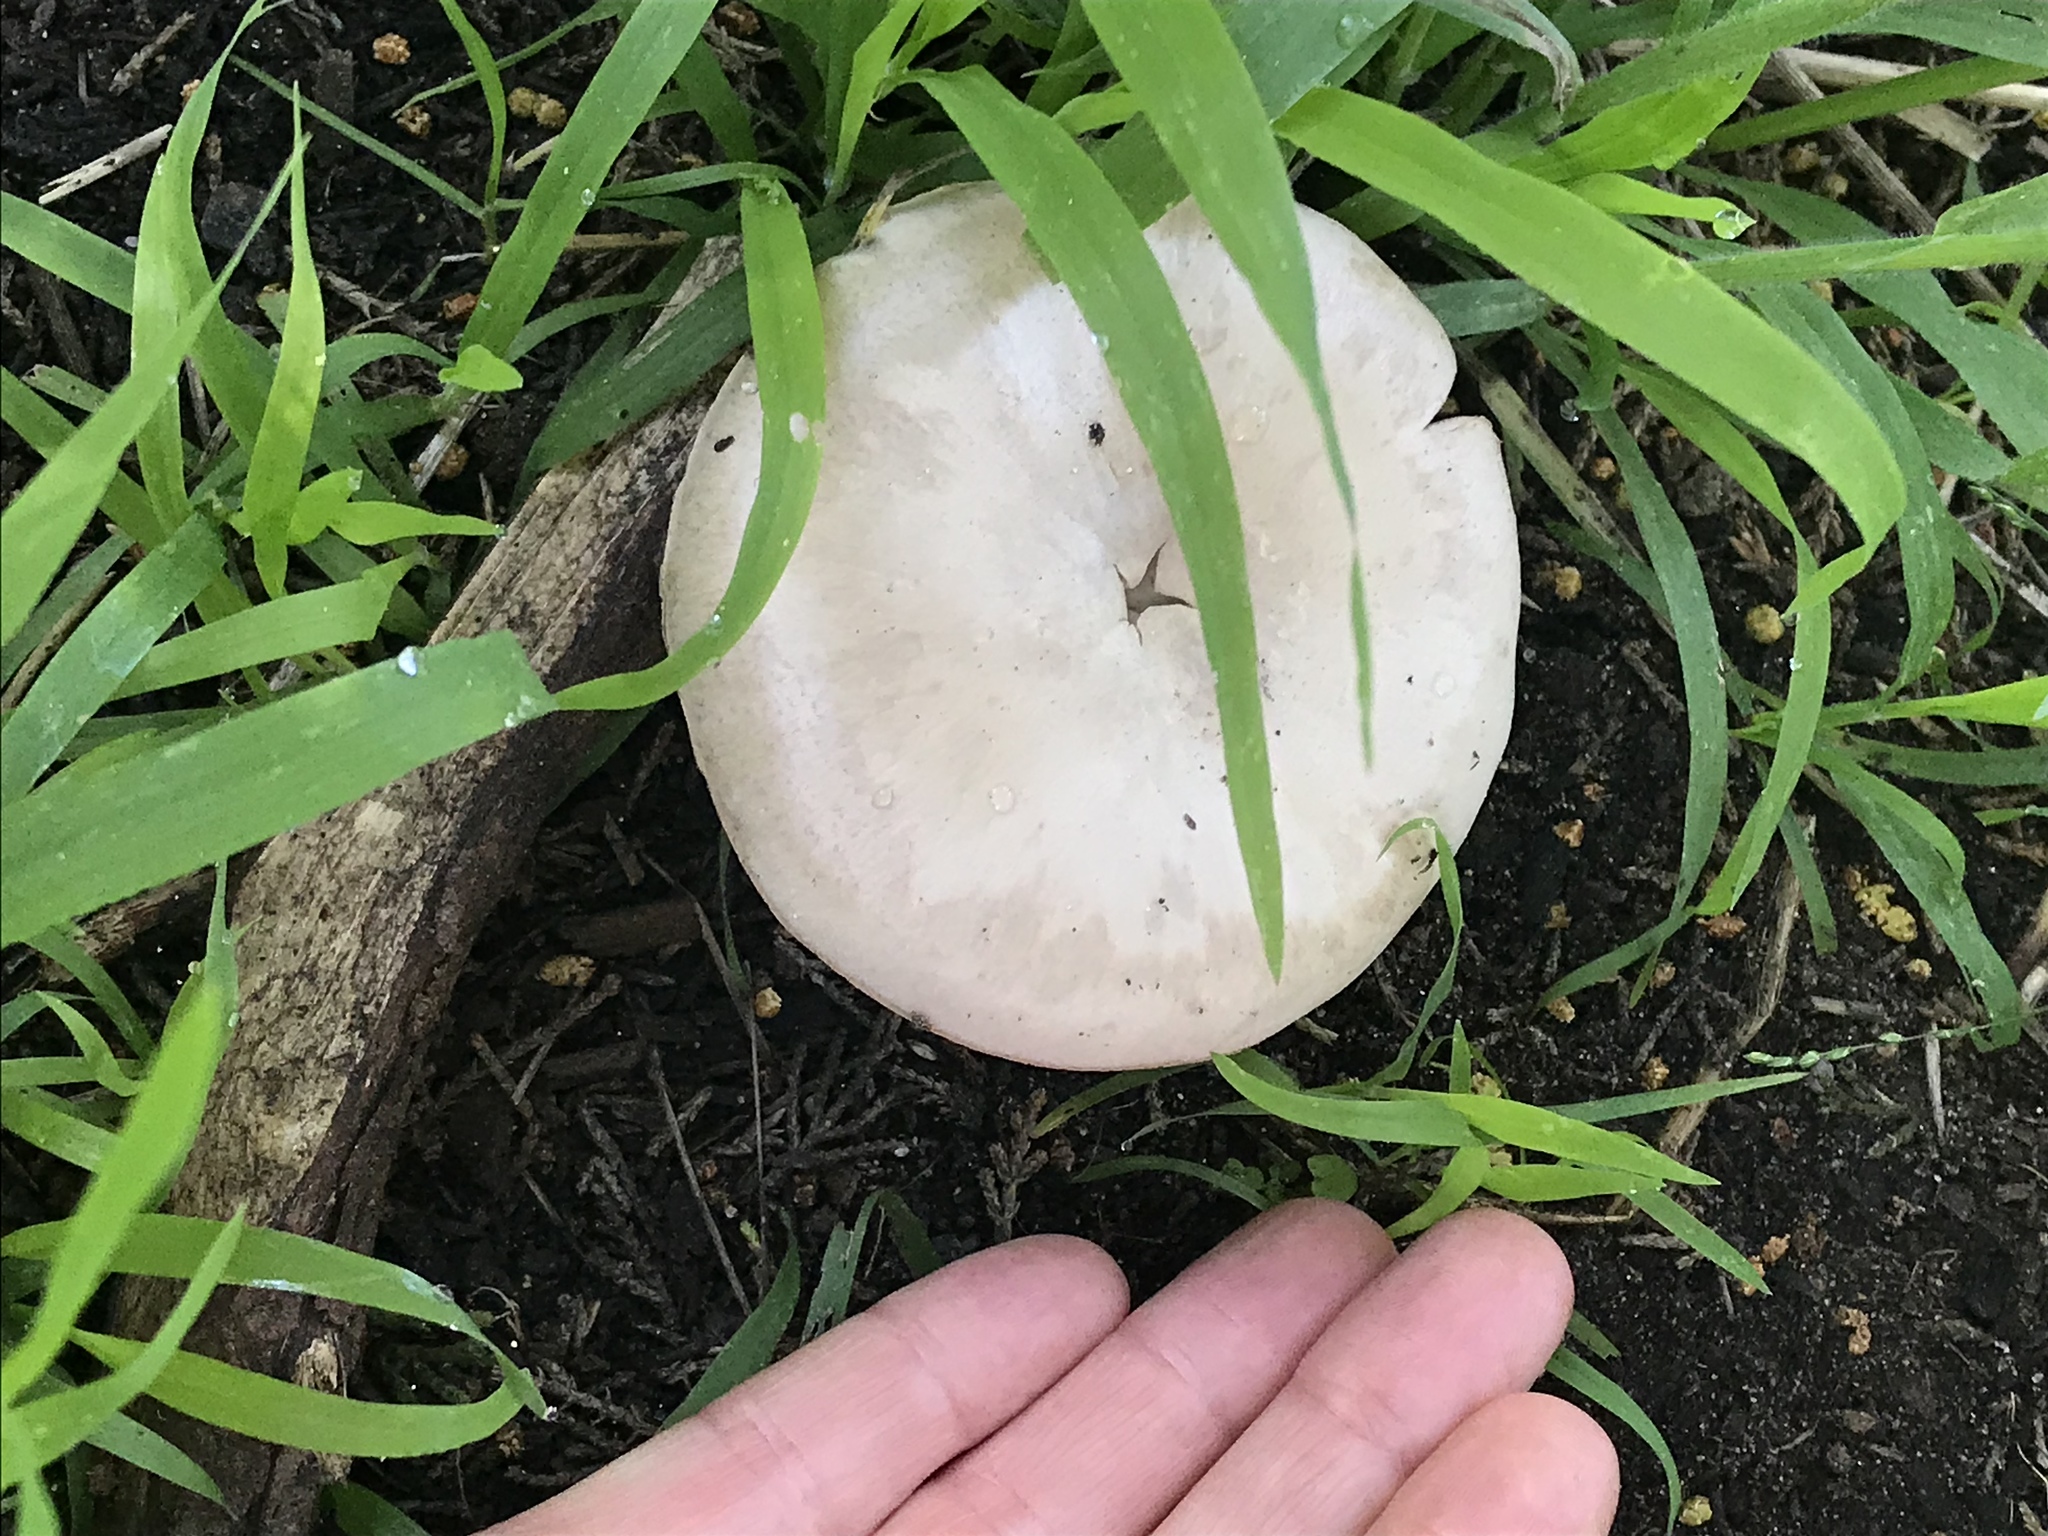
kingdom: Fungi
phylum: Basidiomycota
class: Agaricomycetes
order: Agaricales
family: Agaricaceae
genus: Agaricus
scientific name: Agaricus californicus
